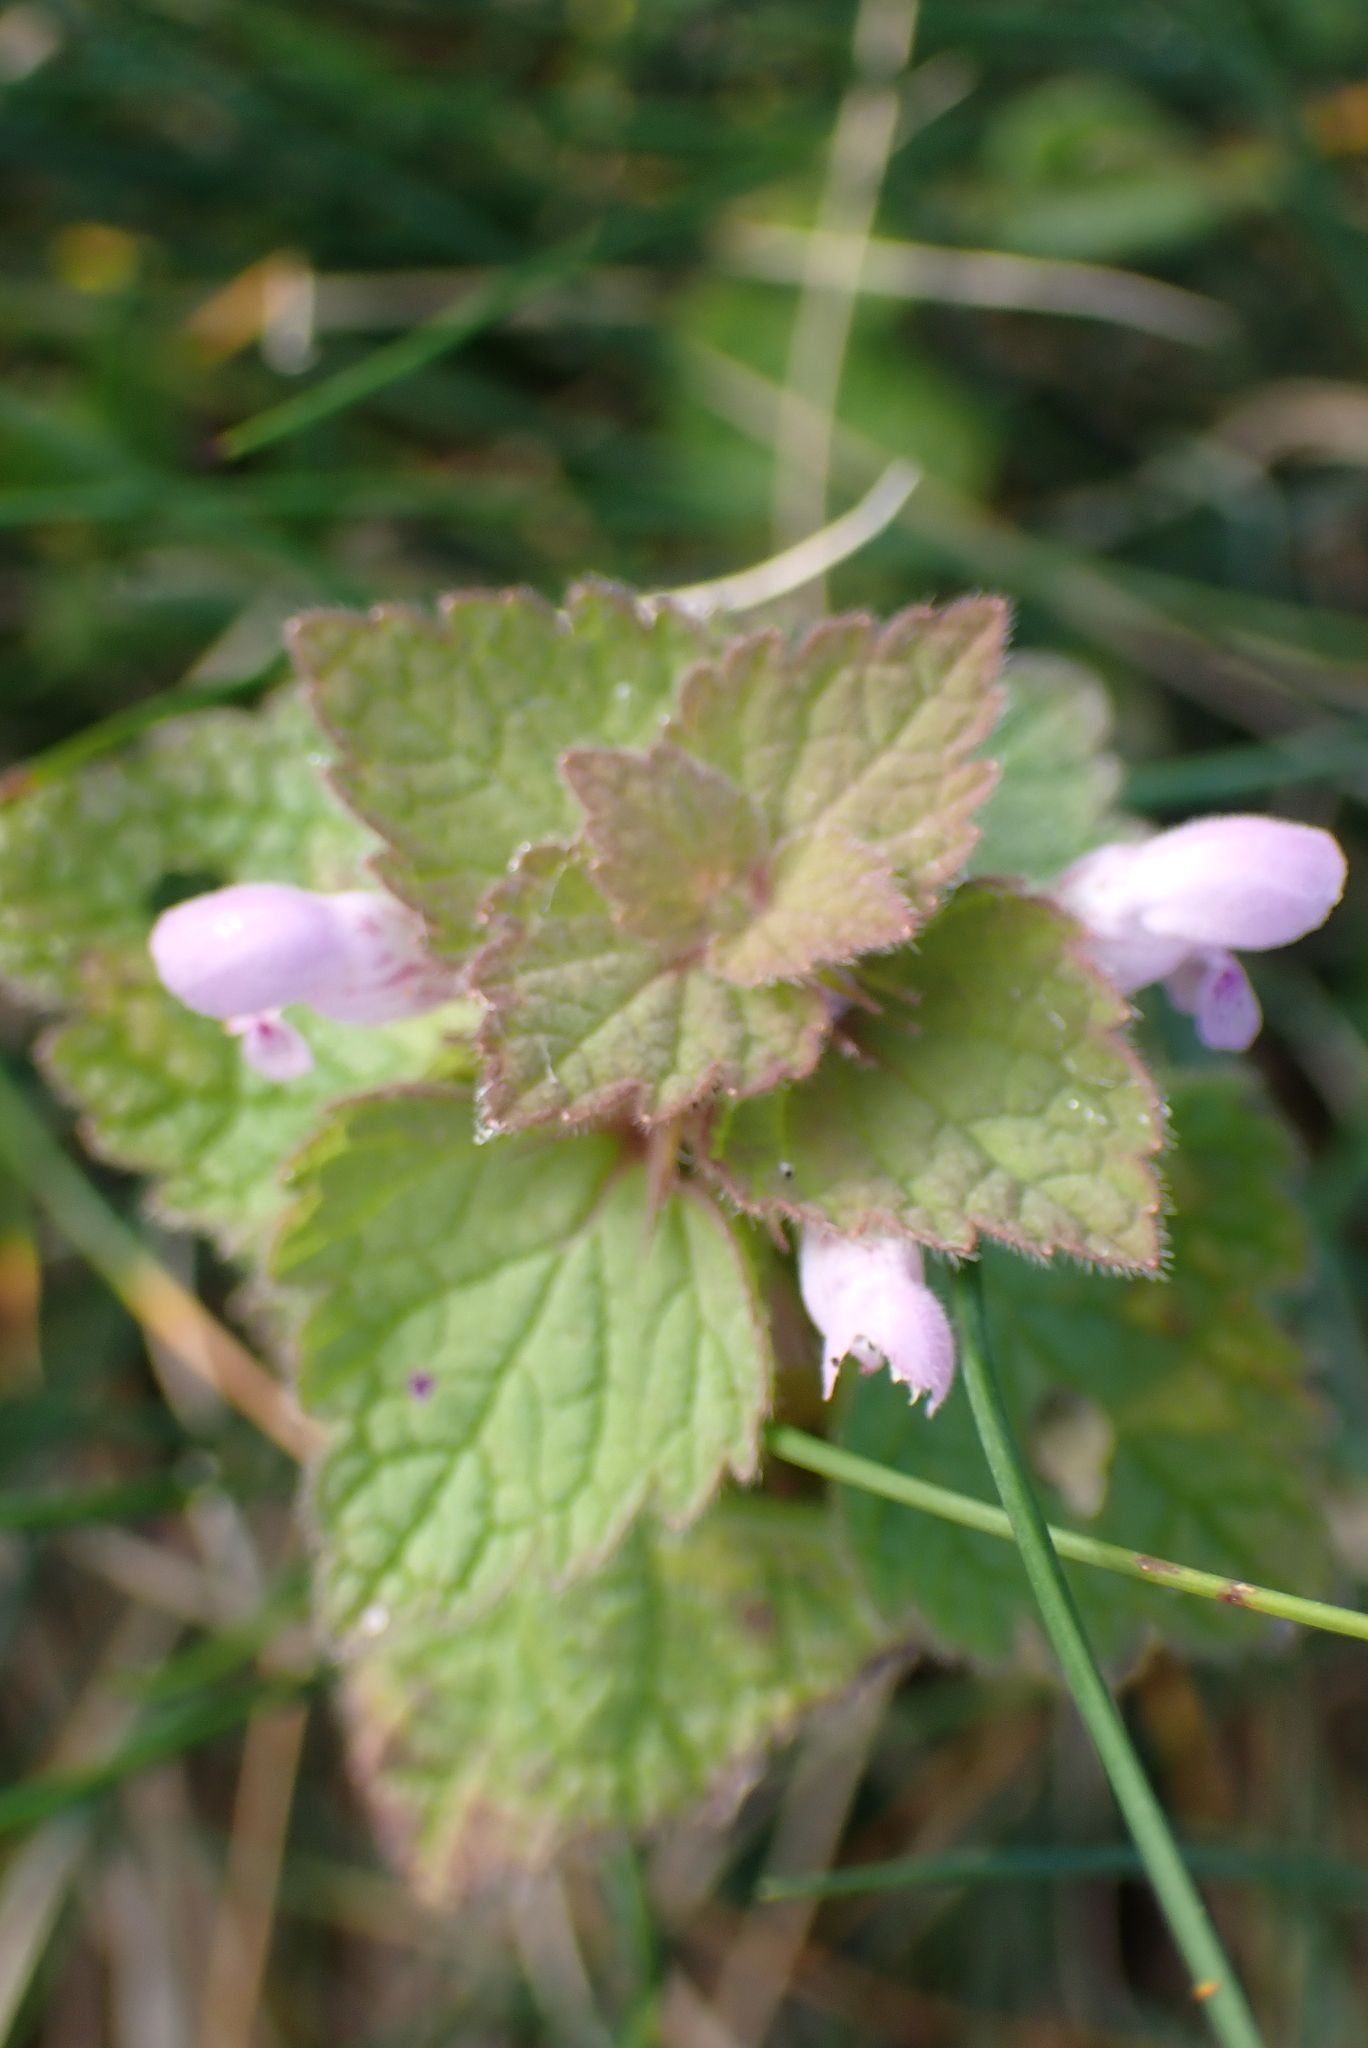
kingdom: Plantae
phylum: Tracheophyta
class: Magnoliopsida
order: Lamiales
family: Lamiaceae
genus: Lamium
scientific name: Lamium purpureum
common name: Red dead-nettle
